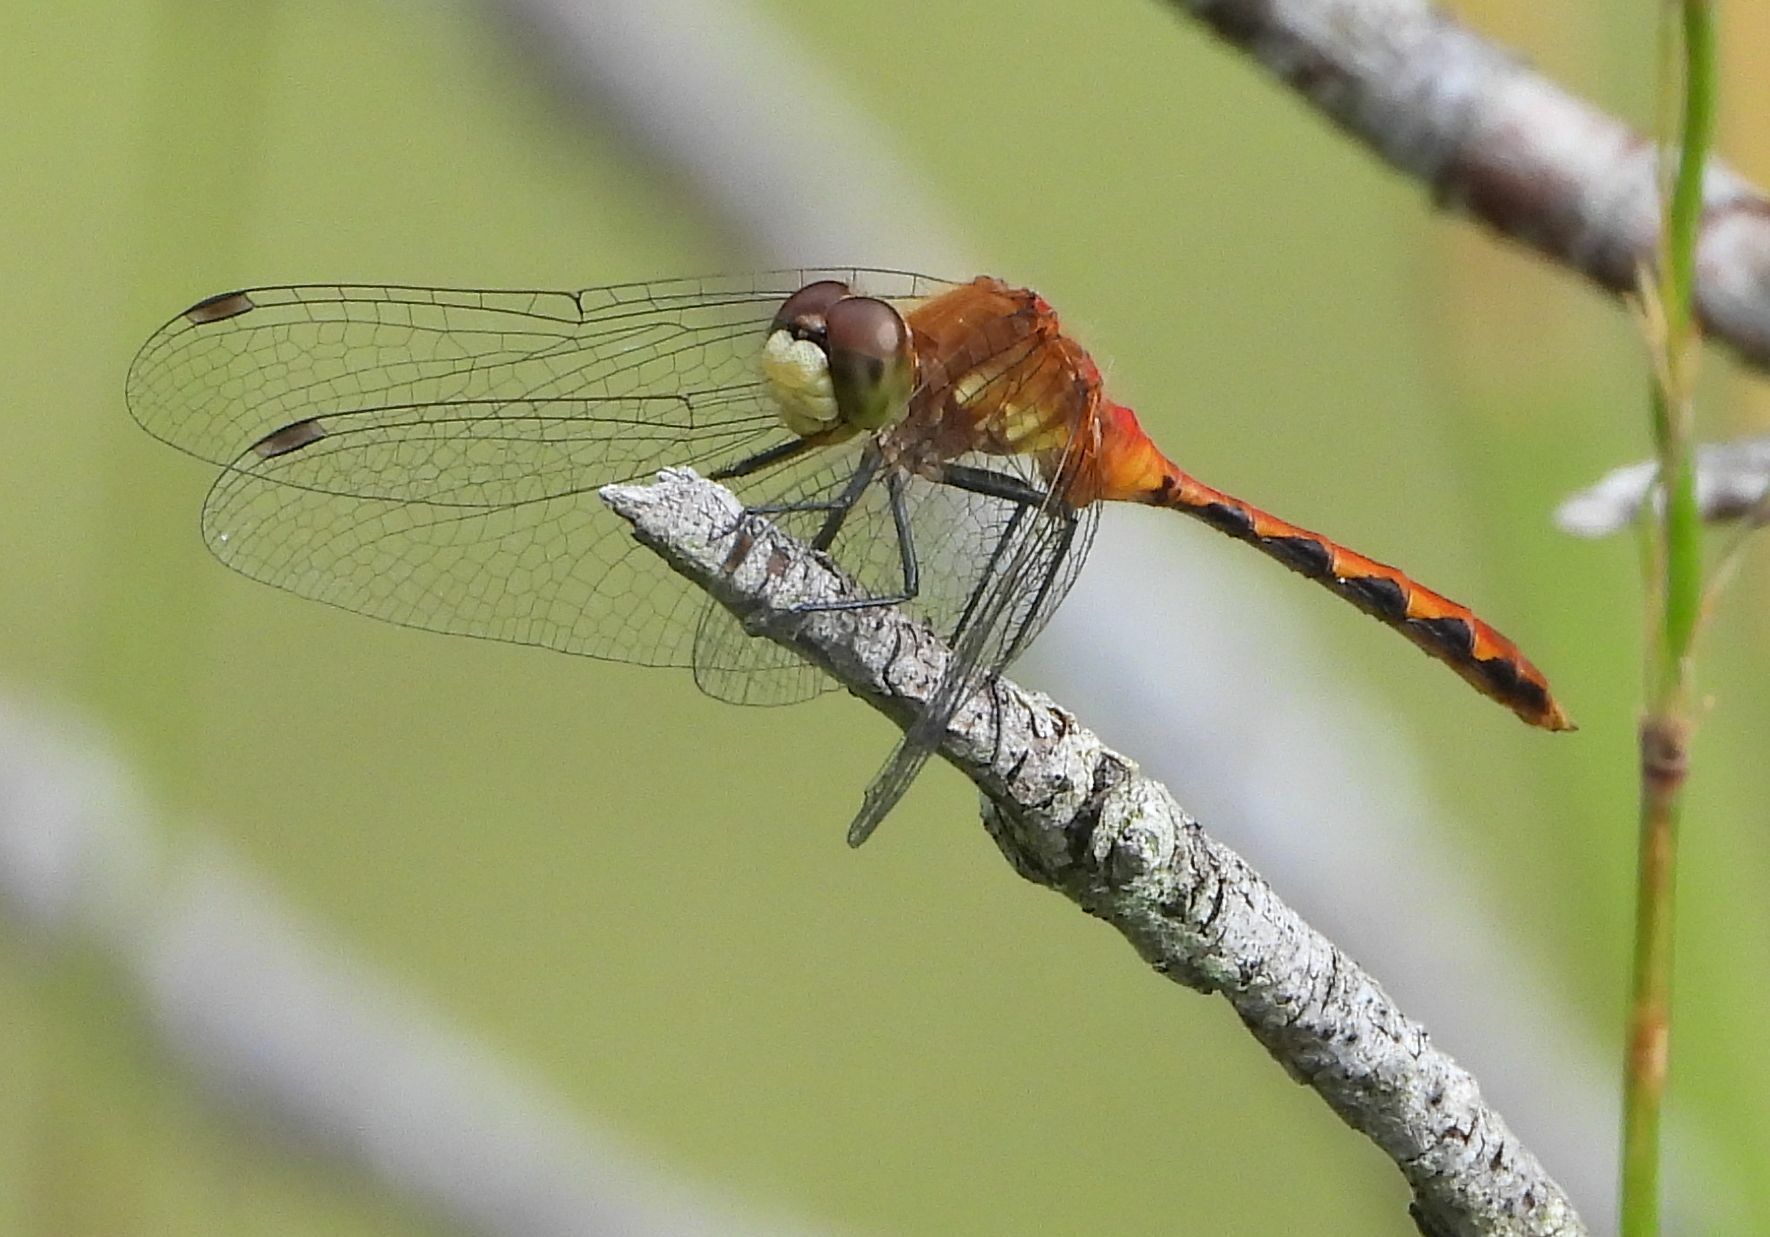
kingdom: Animalia
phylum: Arthropoda
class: Insecta
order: Odonata
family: Libellulidae
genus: Sympetrum
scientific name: Sympetrum obtrusum
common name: White-faced meadowhawk
